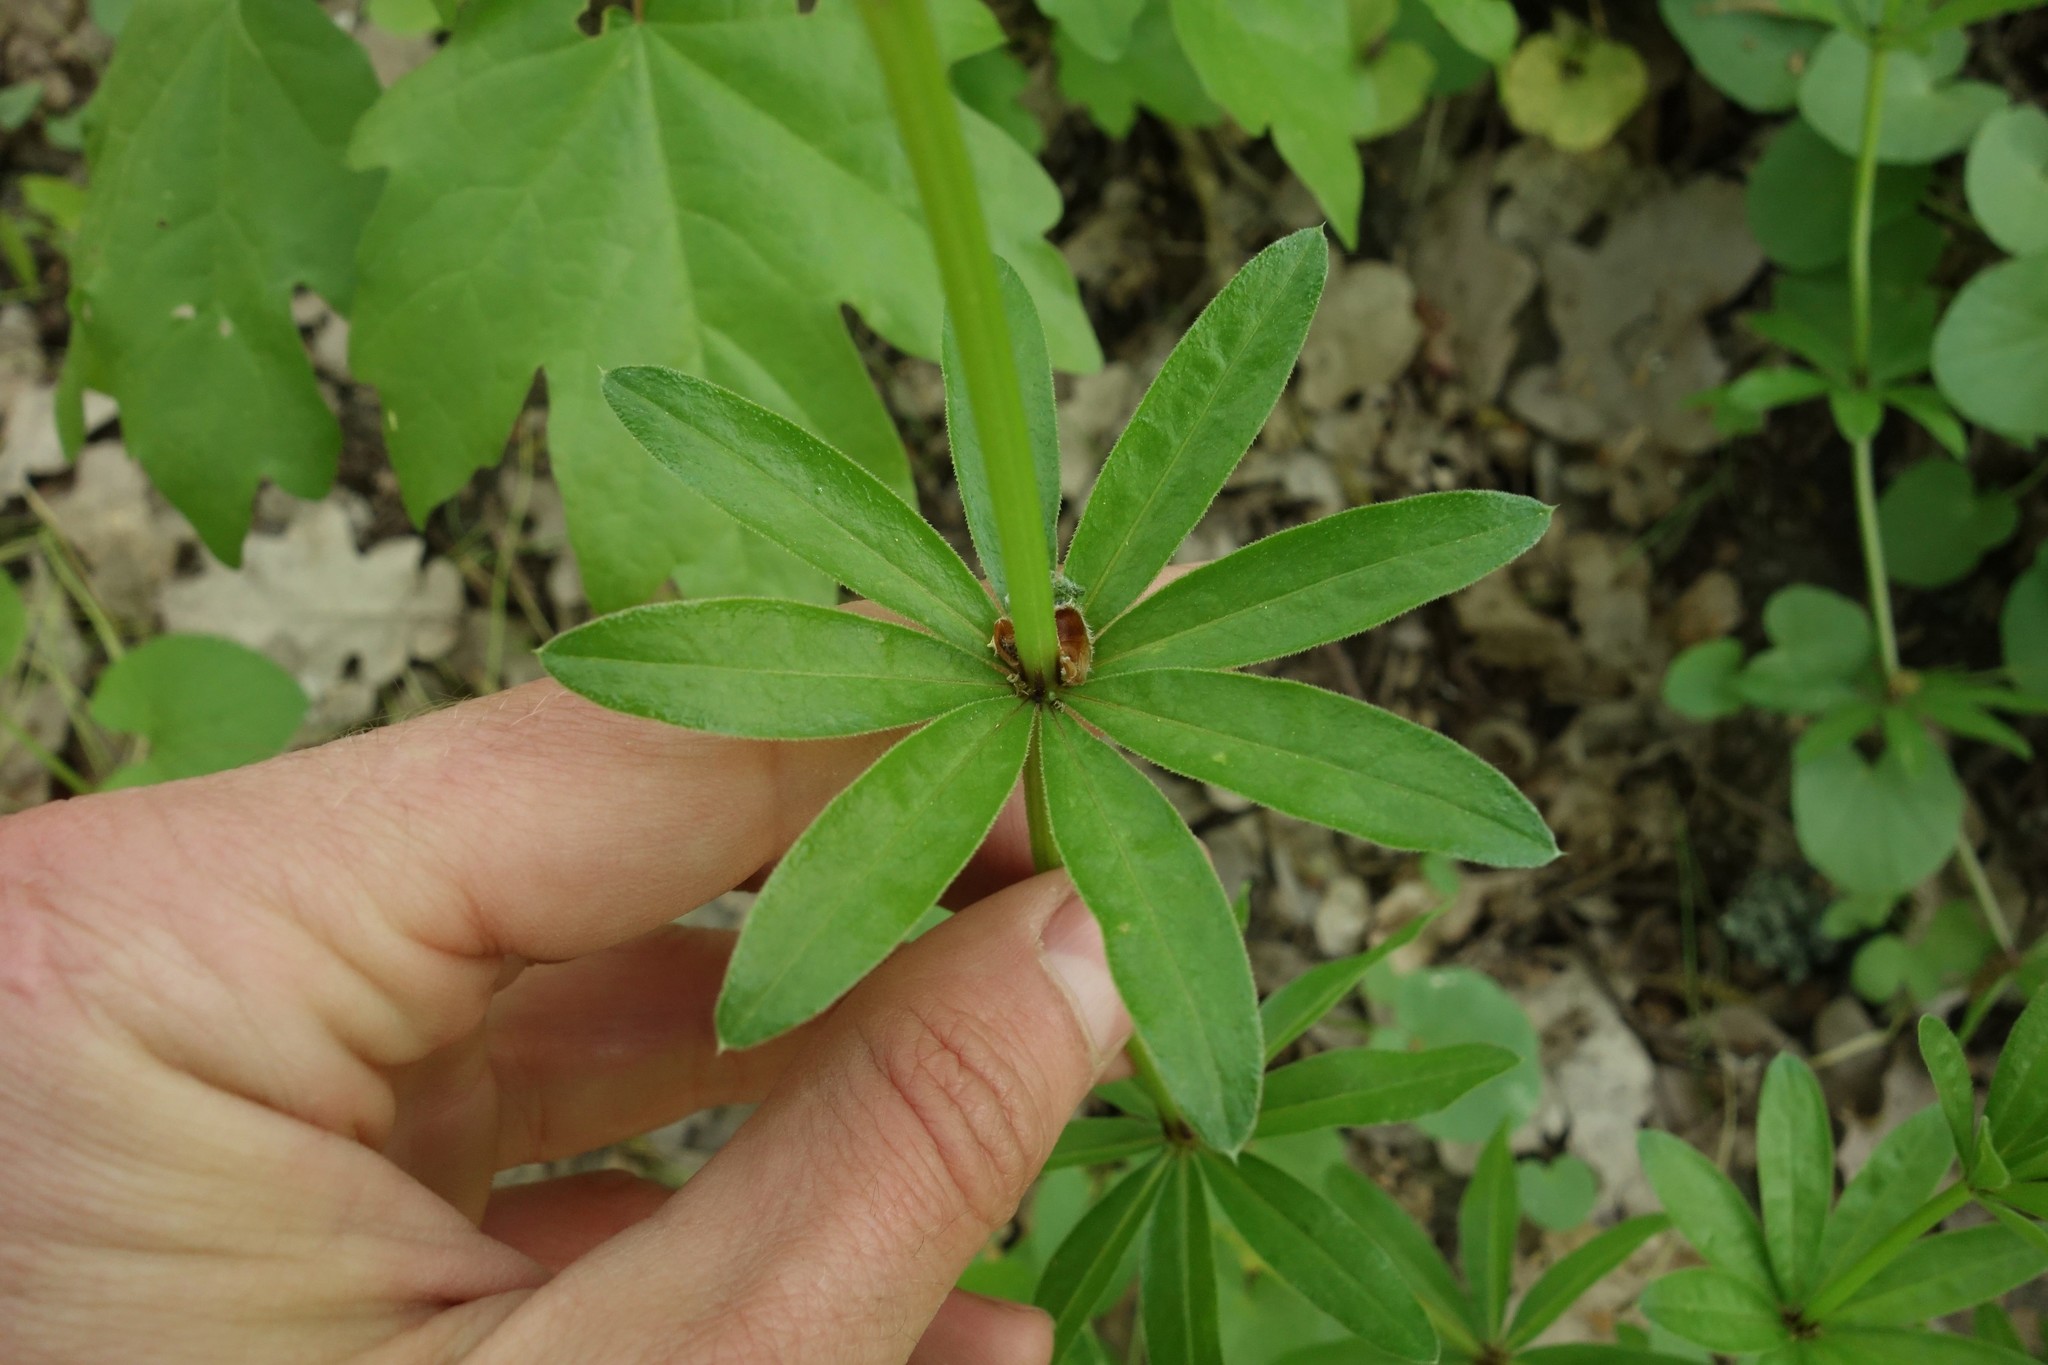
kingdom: Plantae
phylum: Tracheophyta
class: Magnoliopsida
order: Gentianales
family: Rubiaceae
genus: Galium
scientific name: Galium pseudorivale
